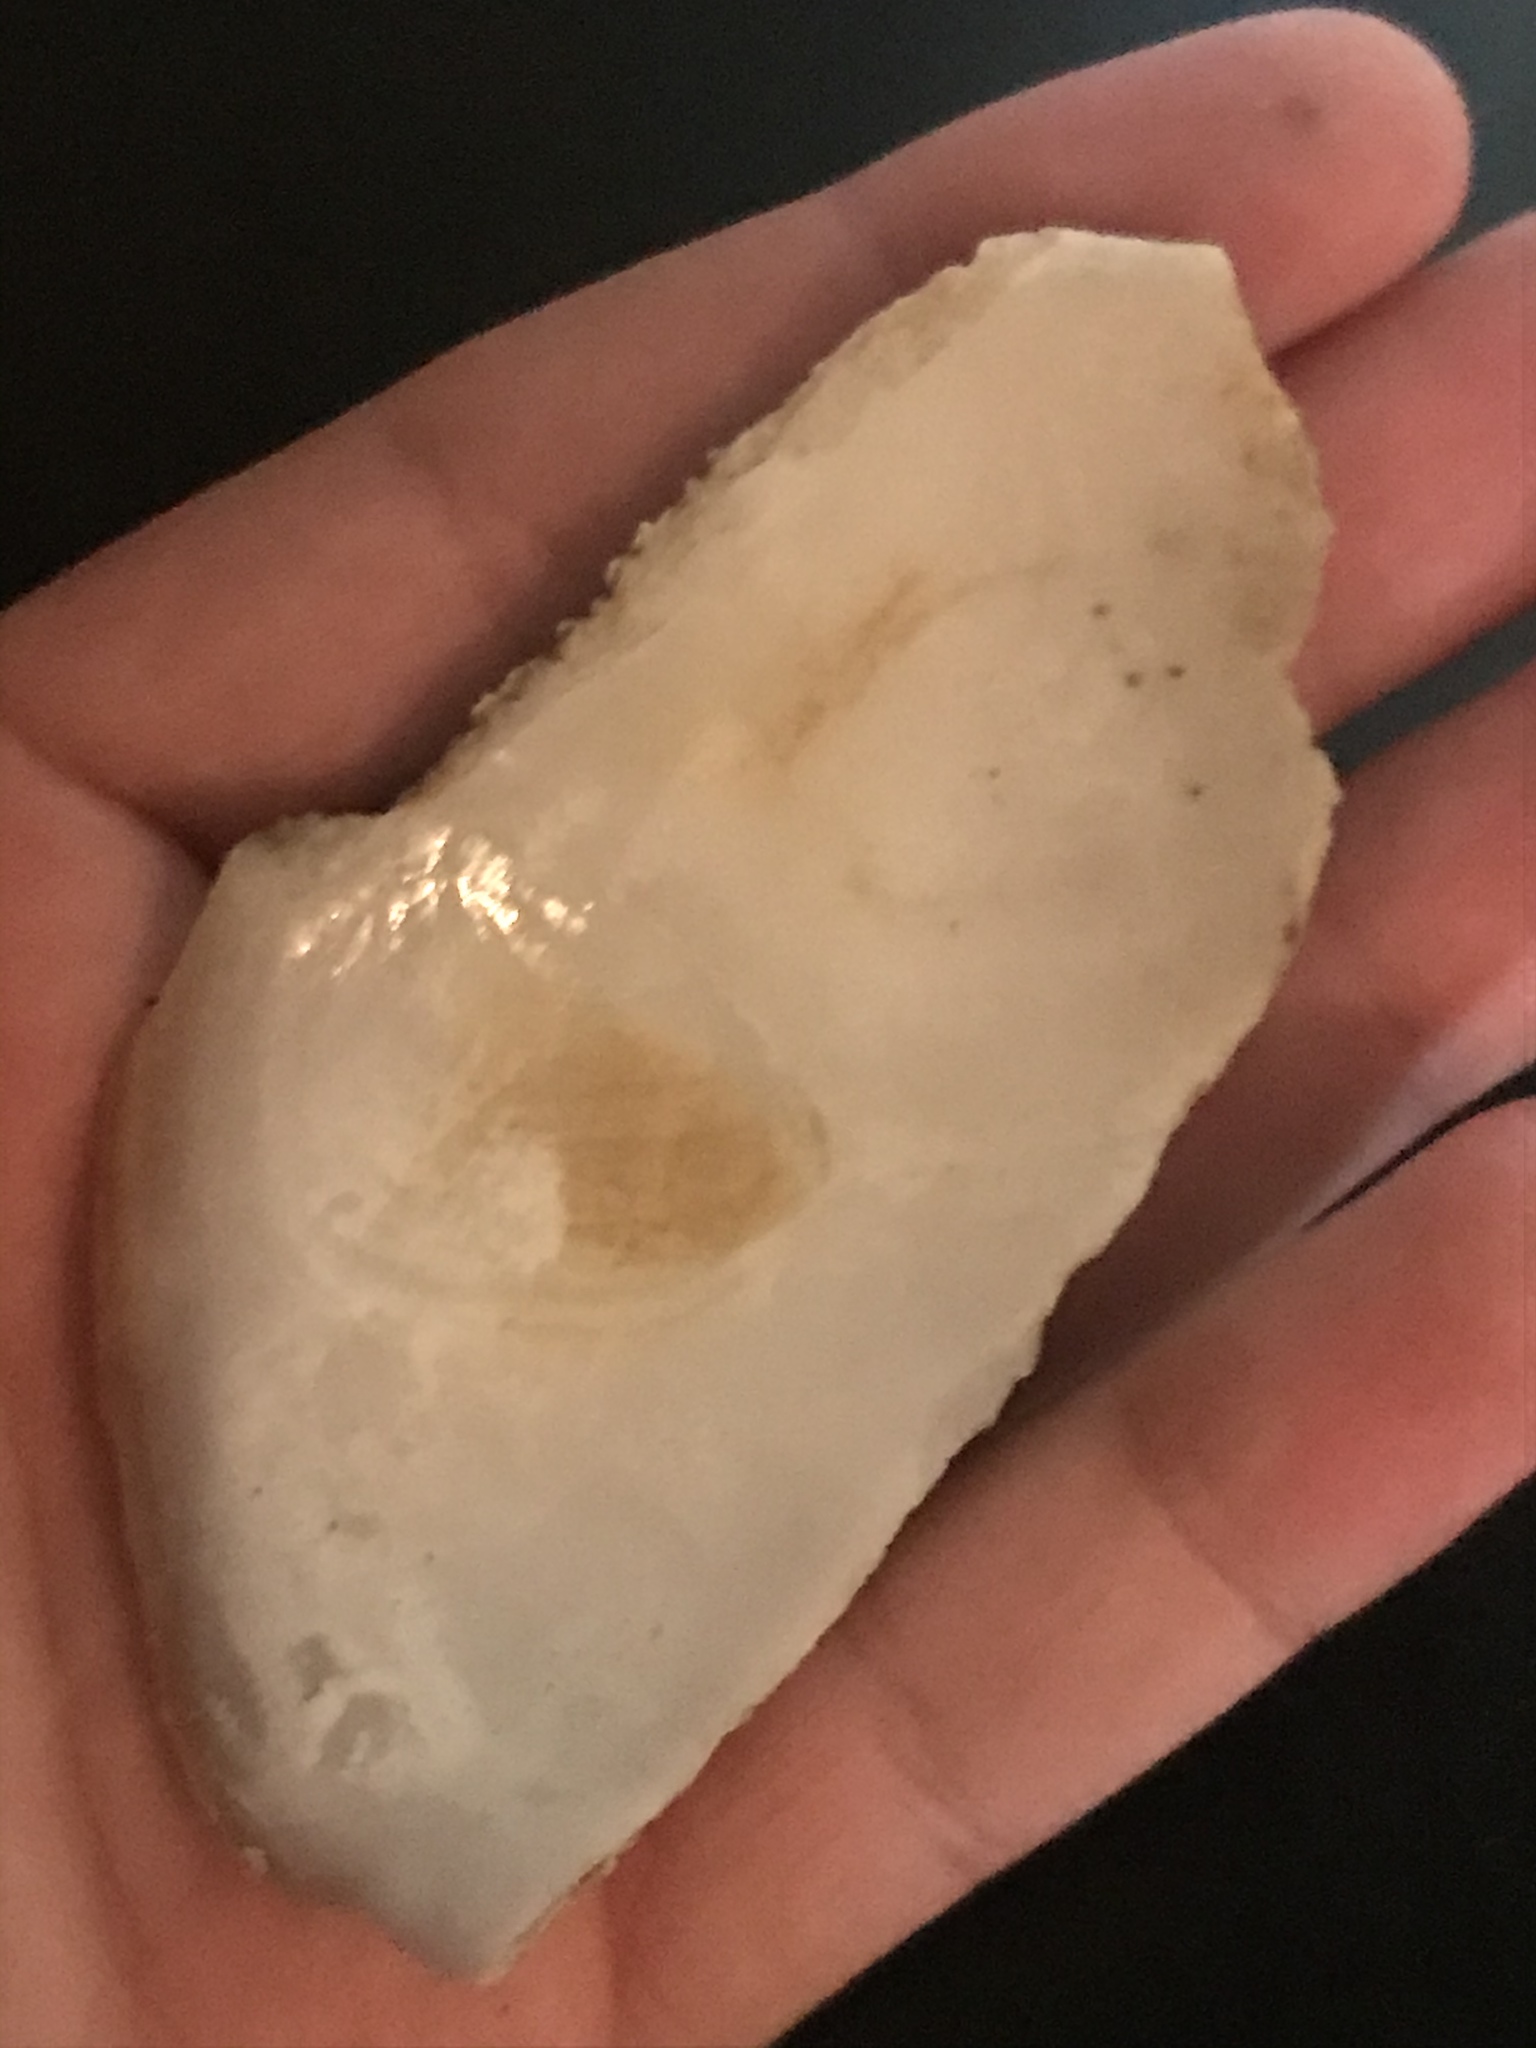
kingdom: Animalia
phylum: Mollusca
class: Bivalvia
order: Venerida
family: Veneridae
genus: Saxidomus
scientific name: Saxidomus nuttalli
